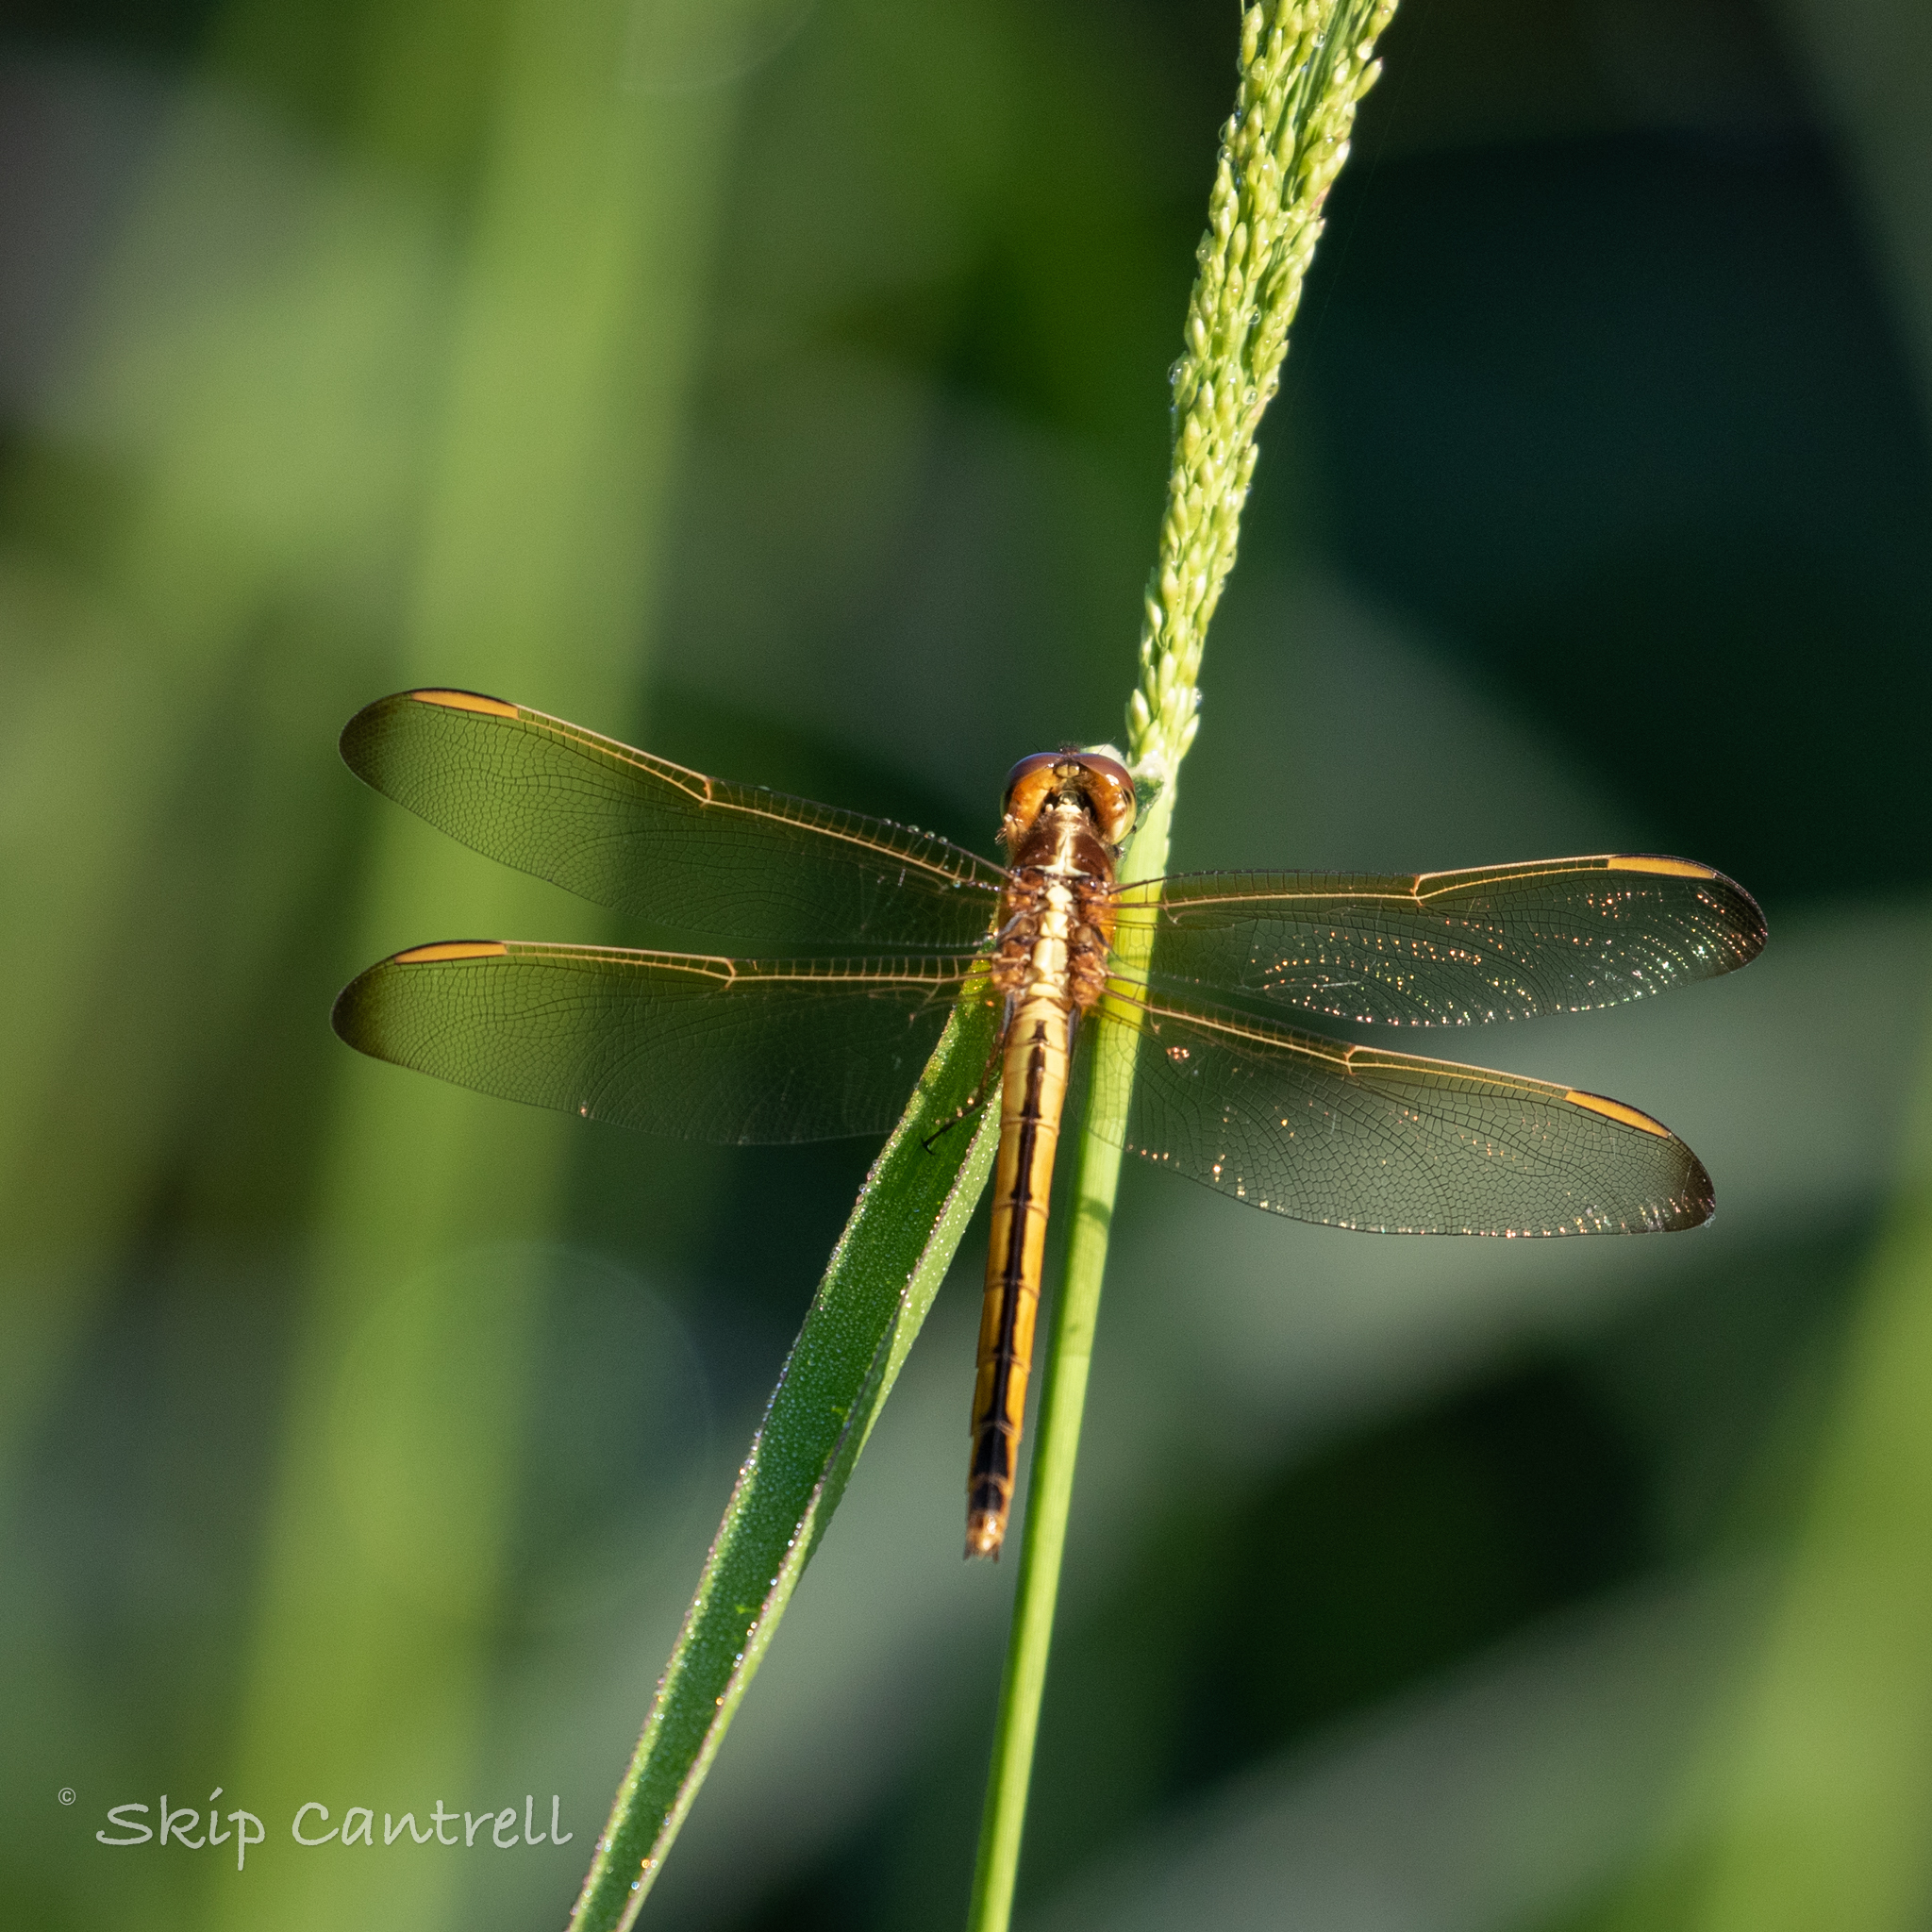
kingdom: Animalia
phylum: Arthropoda
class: Insecta
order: Odonata
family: Libellulidae
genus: Libellula
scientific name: Libellula needhami
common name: Needham's skimmer
